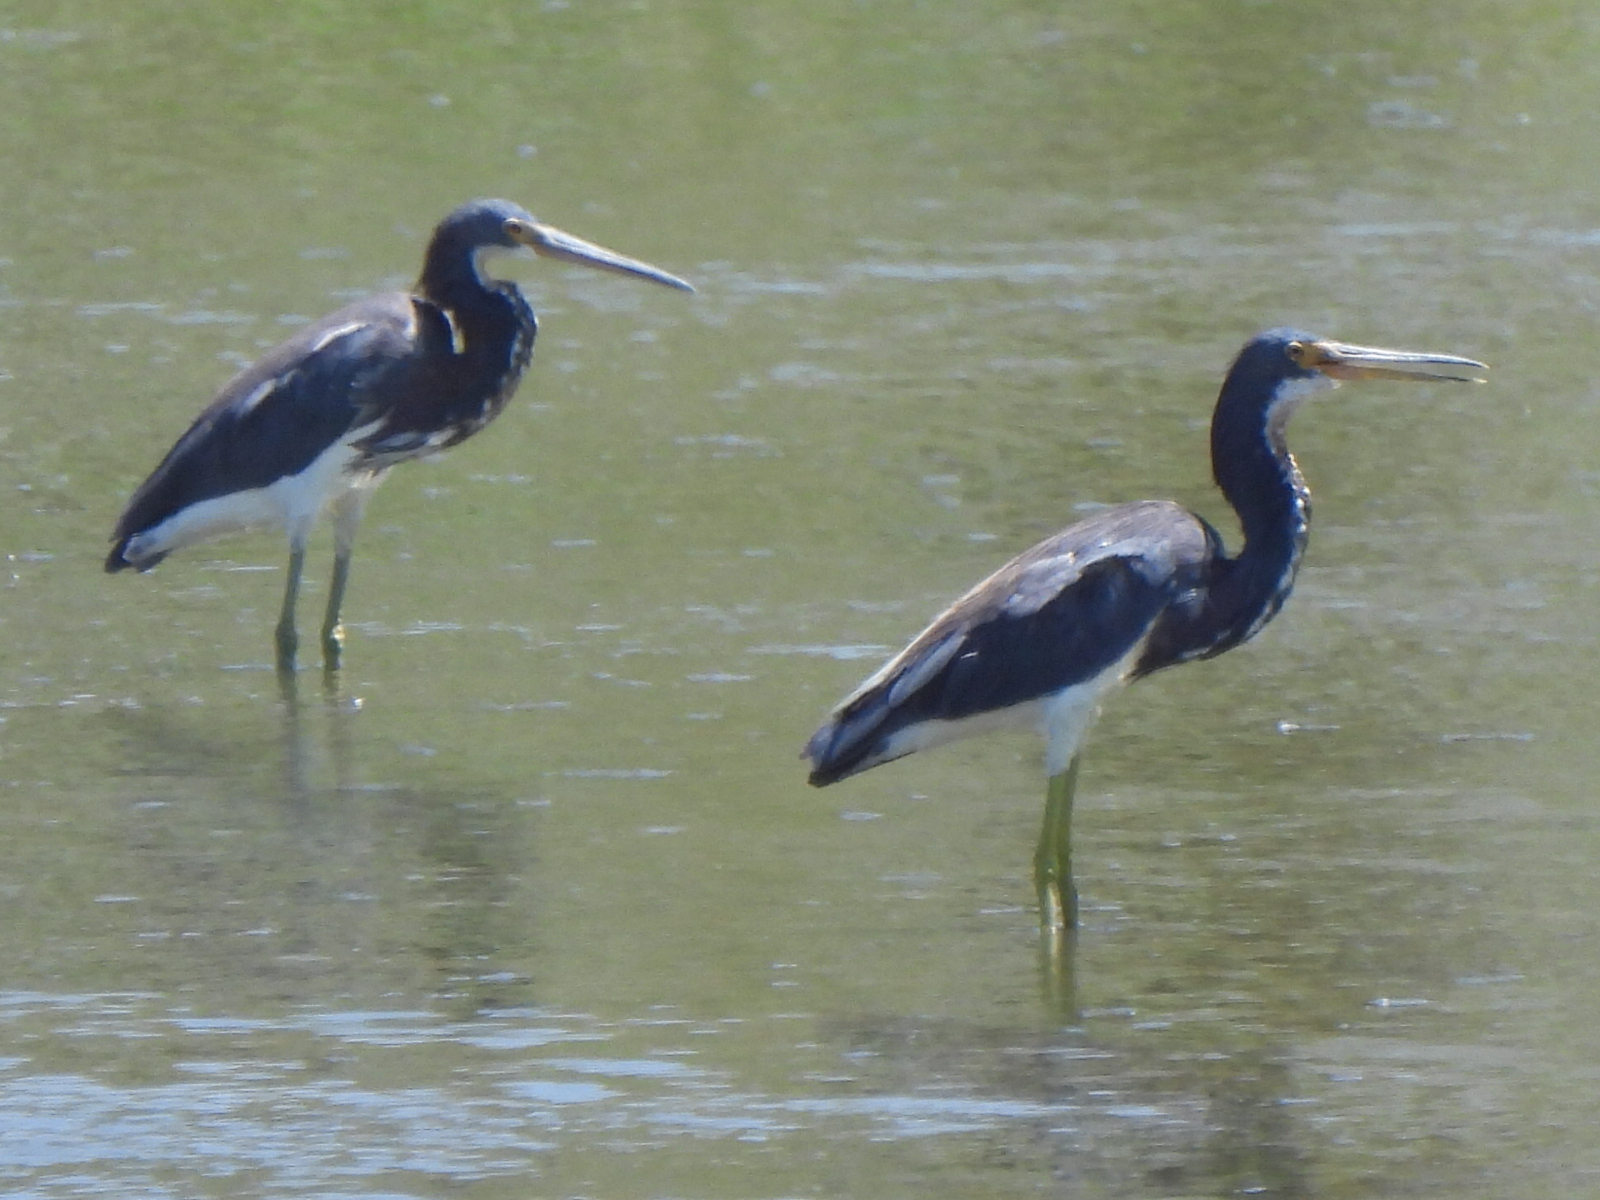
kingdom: Animalia
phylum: Chordata
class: Aves
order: Pelecaniformes
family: Ardeidae
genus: Egretta
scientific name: Egretta tricolor
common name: Tricolored heron
